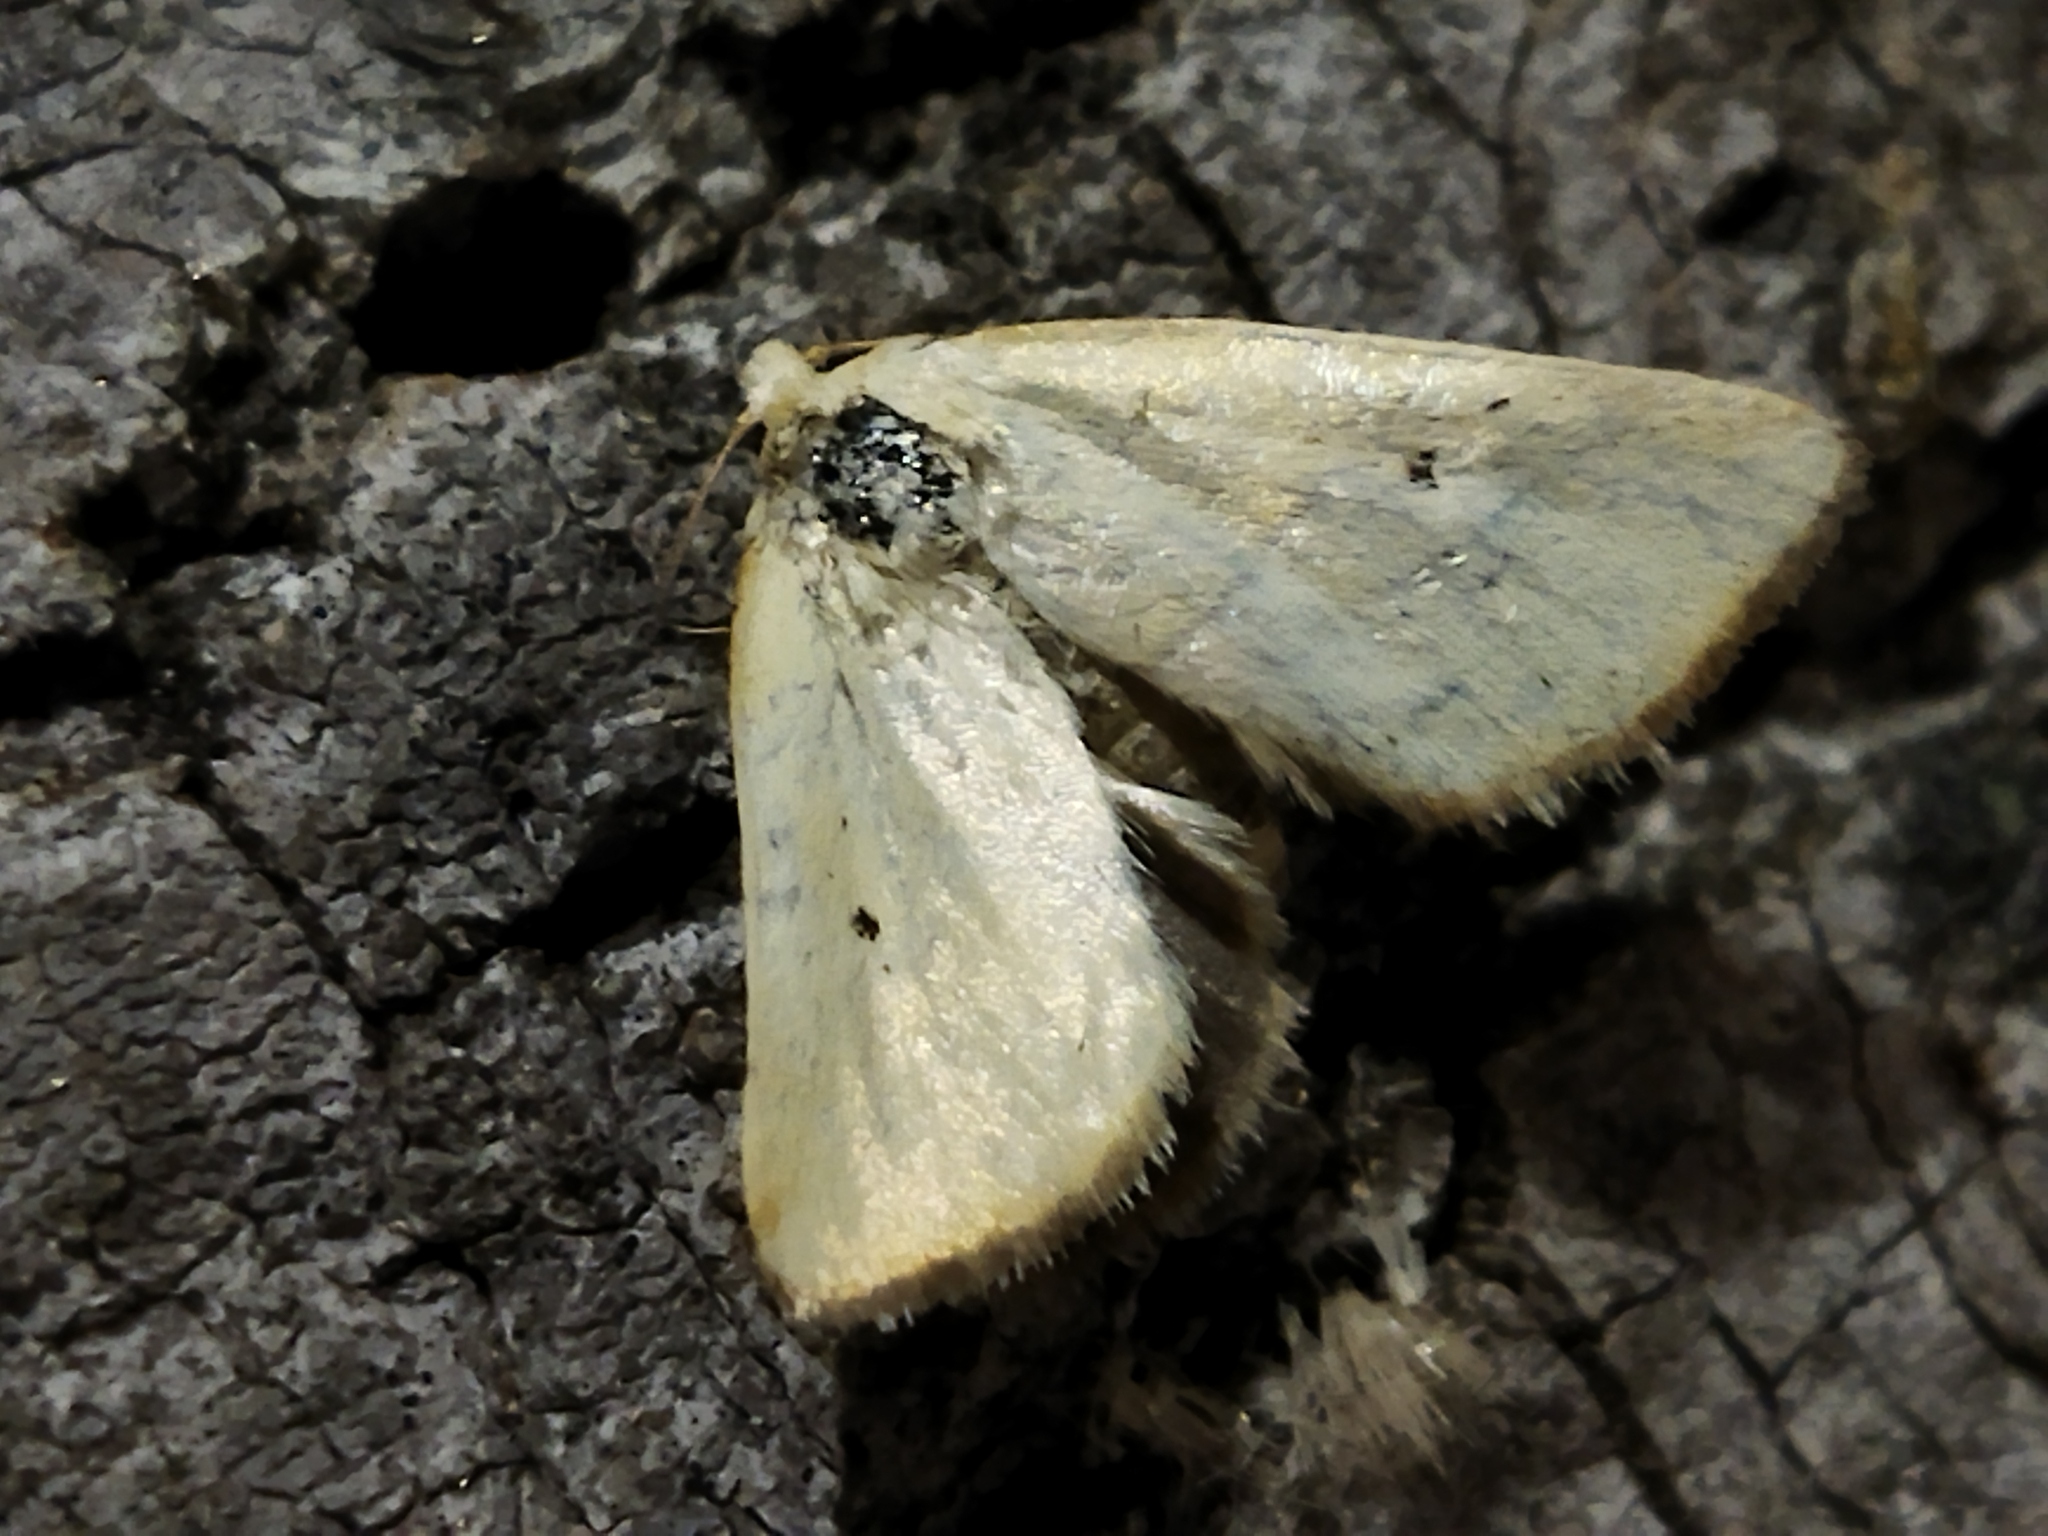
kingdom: Animalia
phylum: Arthropoda
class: Insecta
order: Lepidoptera
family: Noctuidae
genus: Aegle
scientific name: Aegle kaekeritziana
